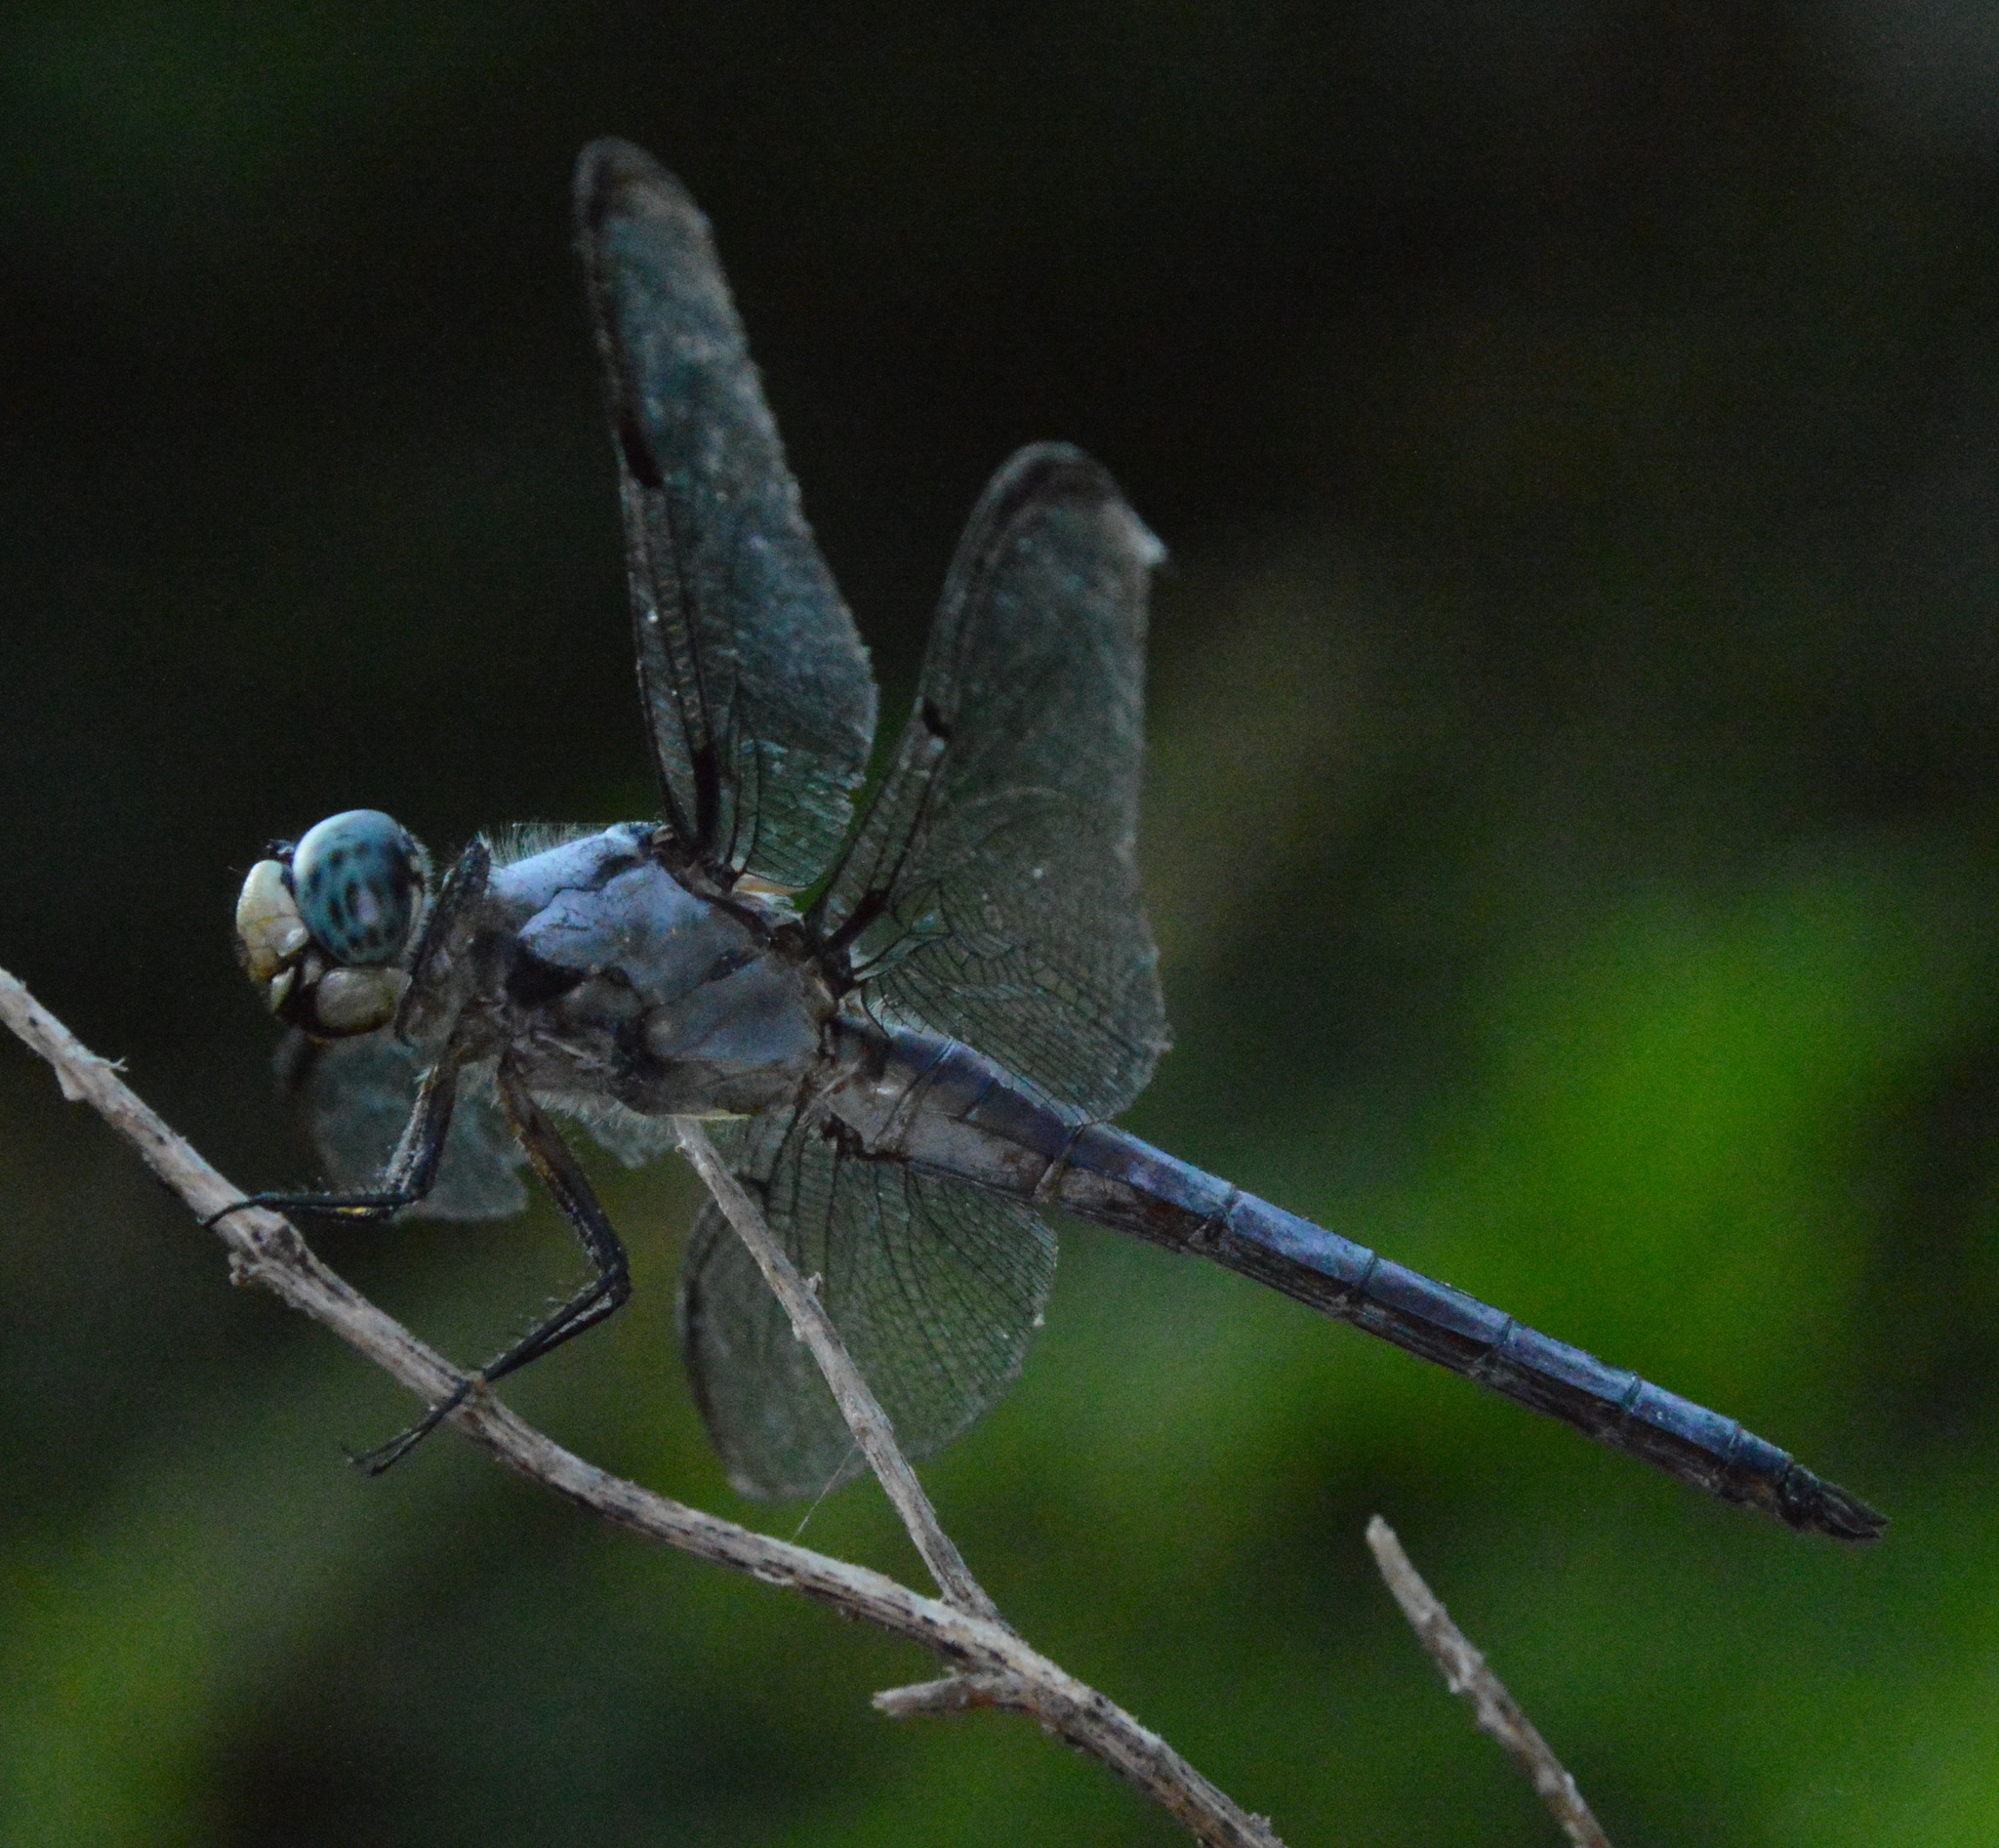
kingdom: Animalia
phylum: Arthropoda
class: Insecta
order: Odonata
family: Libellulidae
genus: Libellula
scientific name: Libellula vibrans
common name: Great blue skimmer
